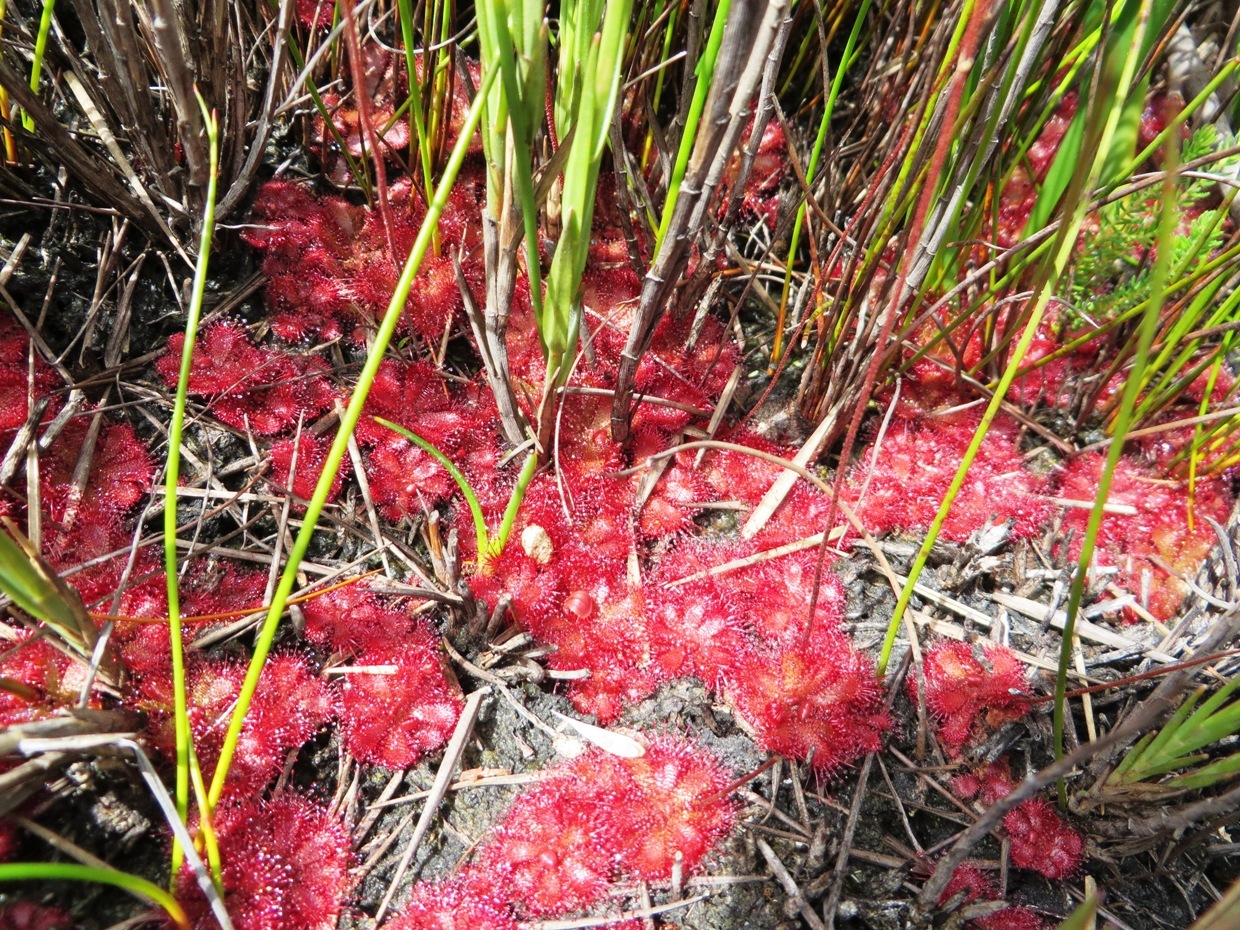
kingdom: Plantae
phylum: Tracheophyta
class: Magnoliopsida
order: Caryophyllales
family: Droseraceae
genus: Drosera
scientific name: Drosera cuneifolia
